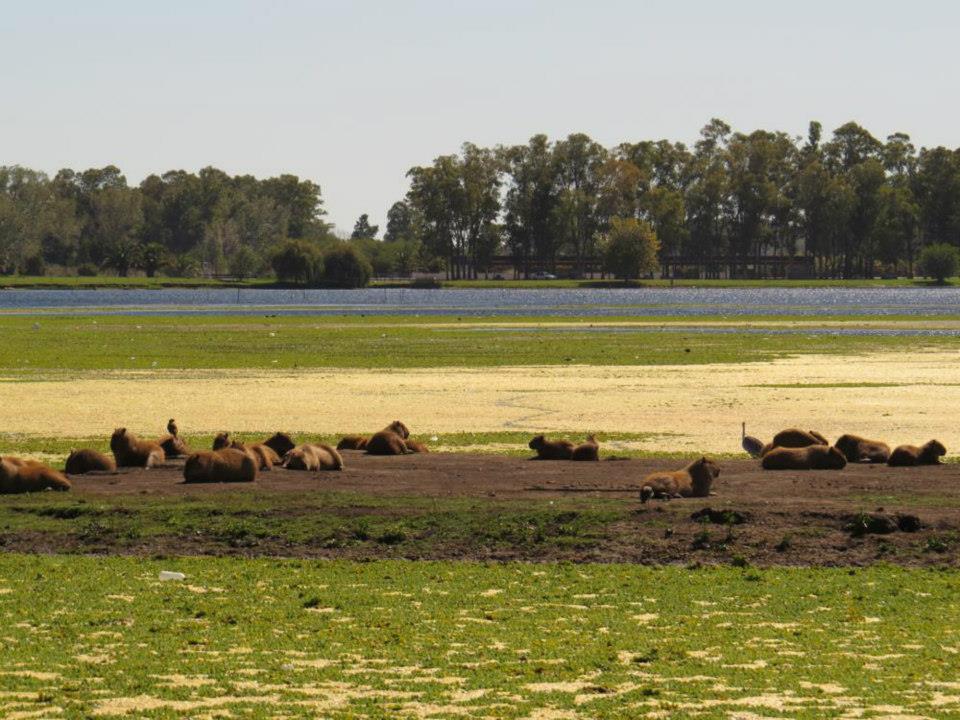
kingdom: Animalia
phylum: Chordata
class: Mammalia
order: Rodentia
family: Caviidae
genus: Hydrochoerus
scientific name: Hydrochoerus hydrochaeris
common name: Capybara
